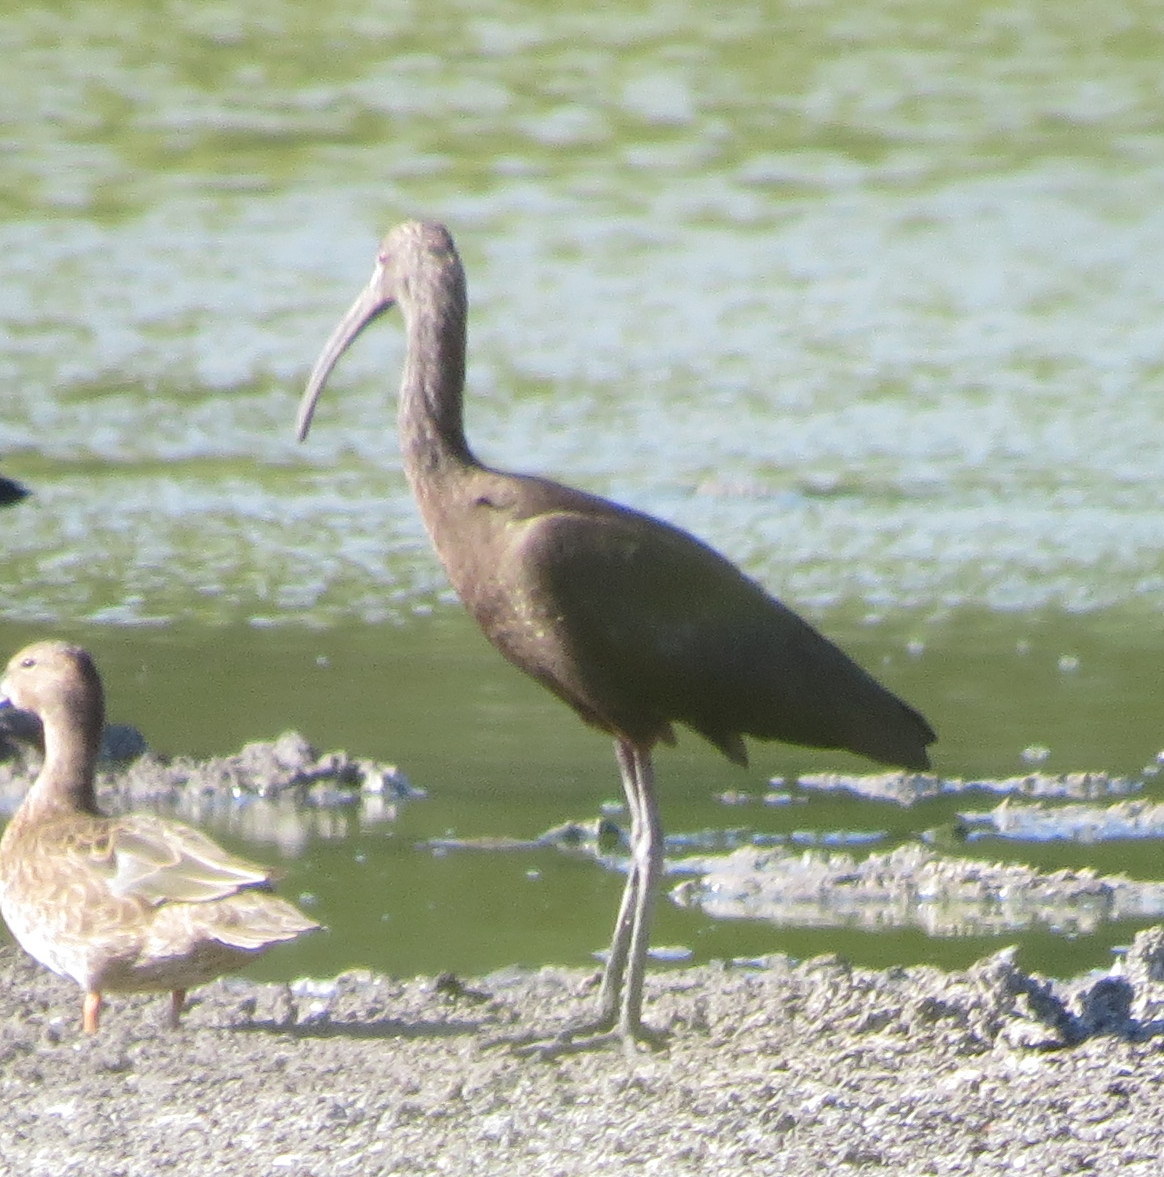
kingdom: Animalia
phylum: Chordata
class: Aves
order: Pelecaniformes
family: Threskiornithidae
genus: Plegadis
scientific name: Plegadis chihi
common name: White-faced ibis
